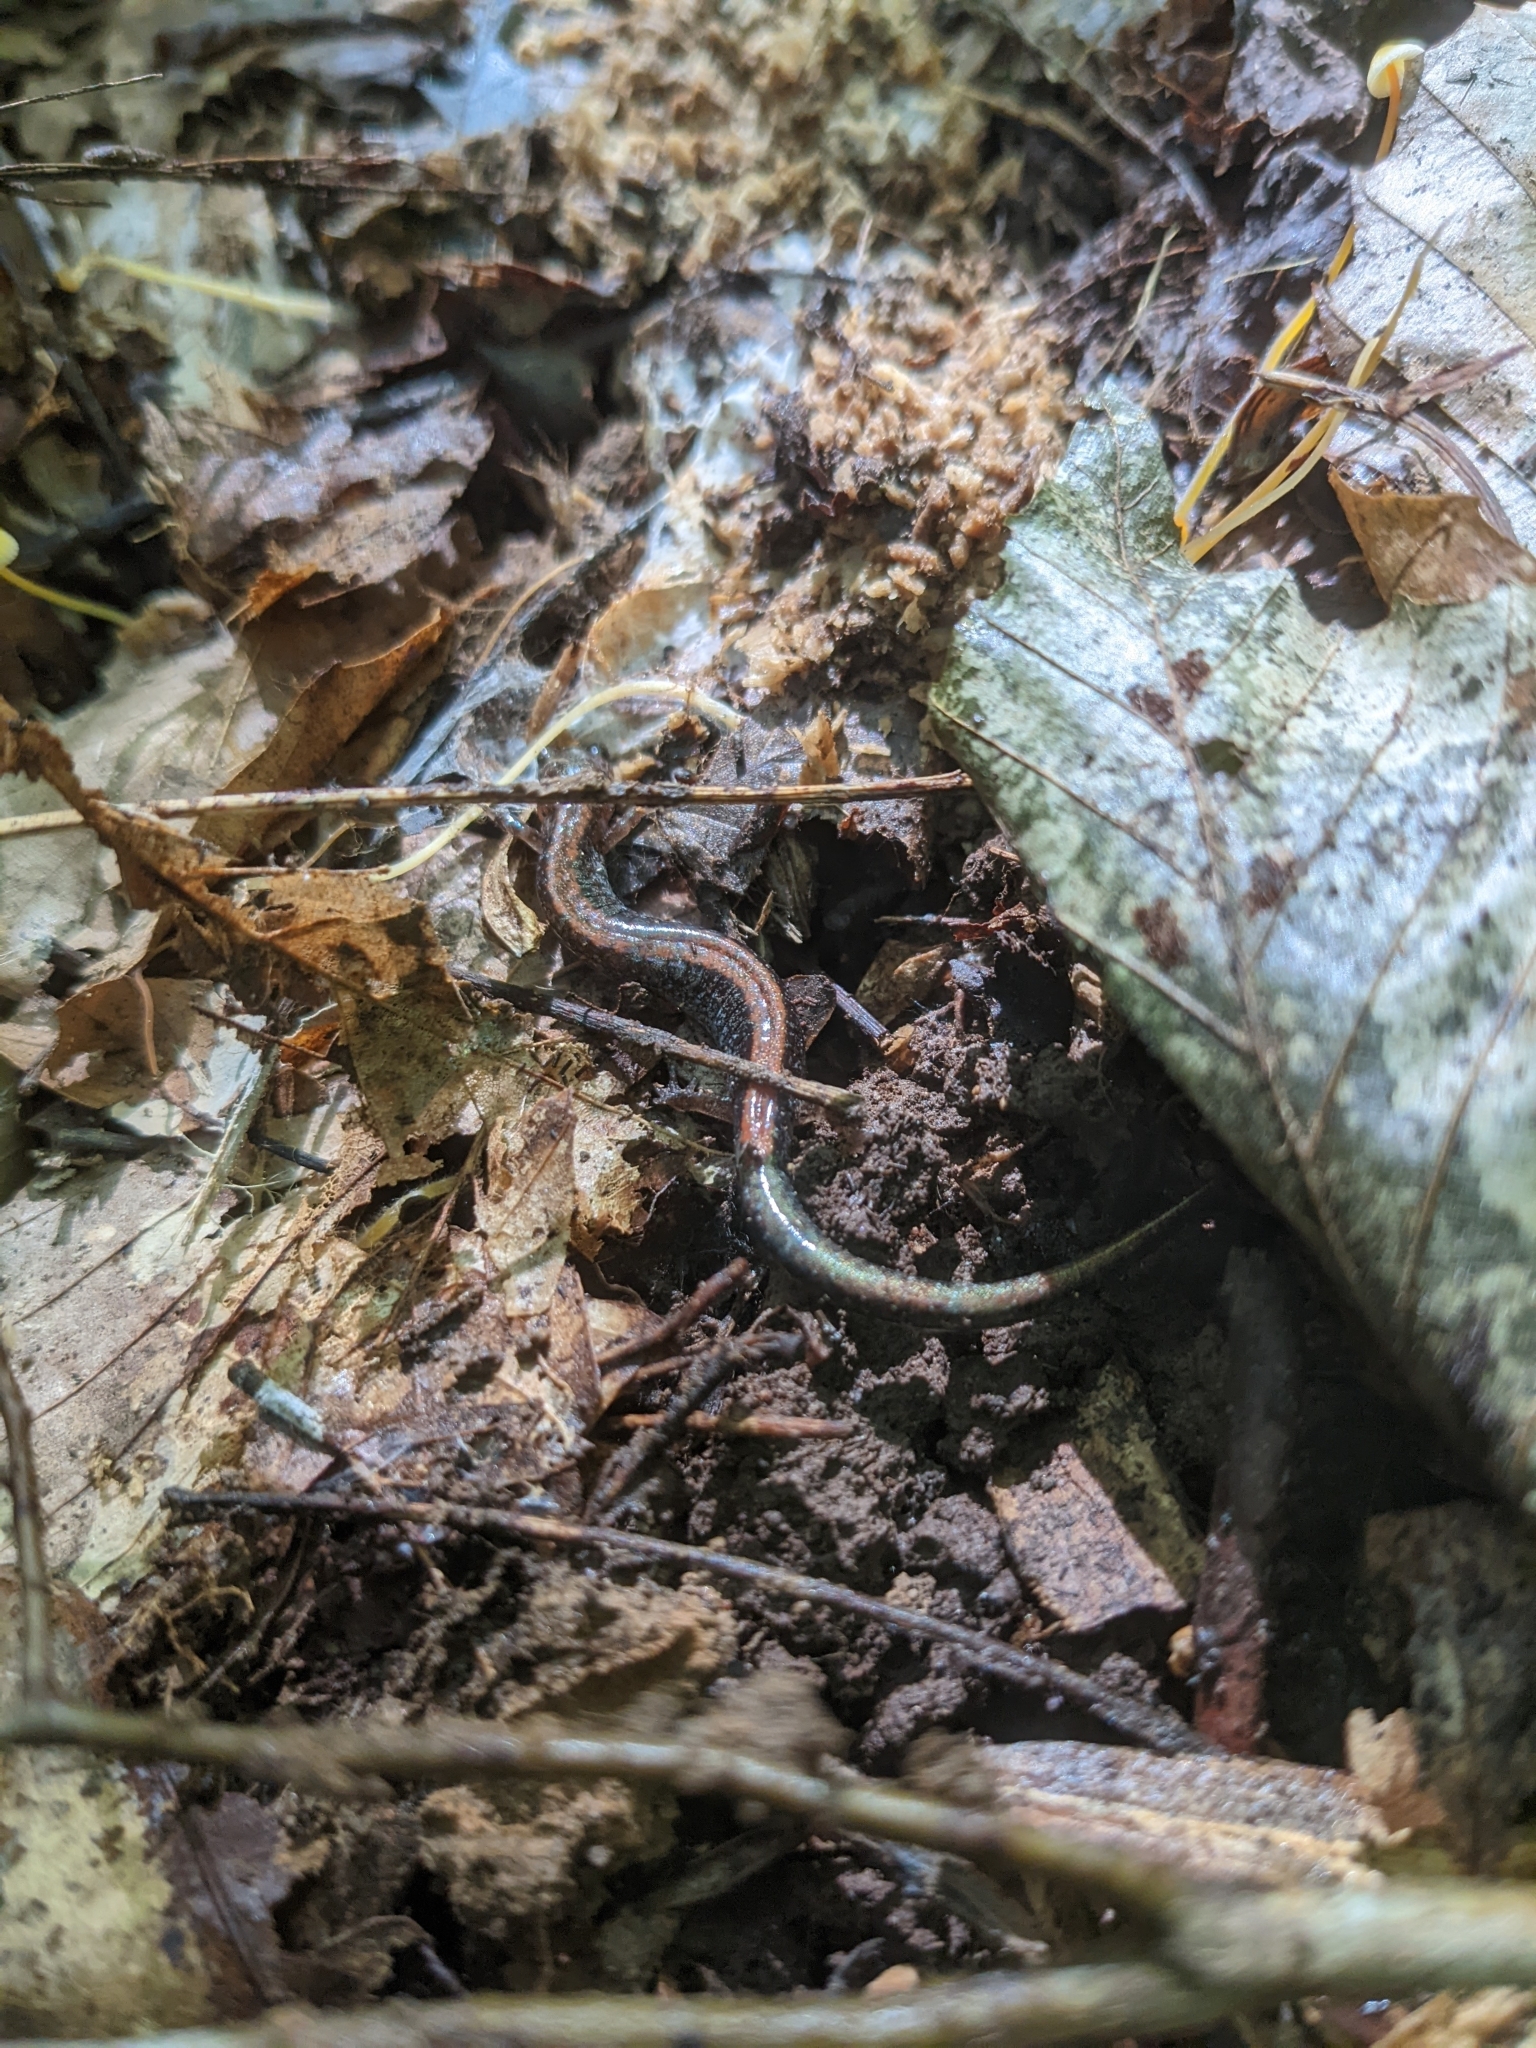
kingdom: Animalia
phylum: Chordata
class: Amphibia
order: Caudata
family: Plethodontidae
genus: Plethodon
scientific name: Plethodon cinereus
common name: Redback salamander
